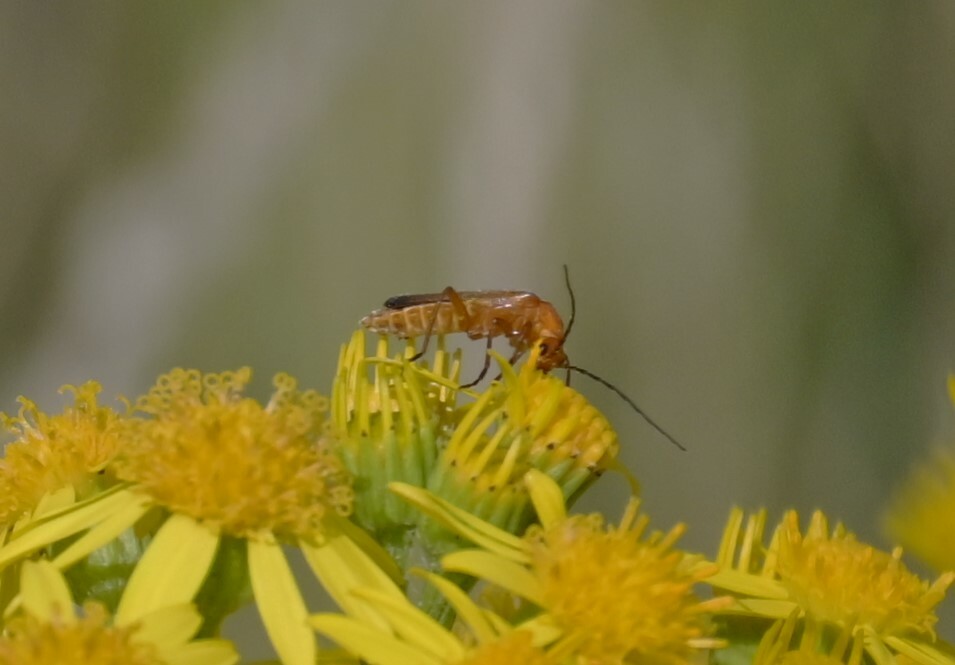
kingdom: Animalia
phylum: Arthropoda
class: Insecta
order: Coleoptera
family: Cantharidae
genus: Rhagonycha
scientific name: Rhagonycha fulva
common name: Common red soldier beetle
